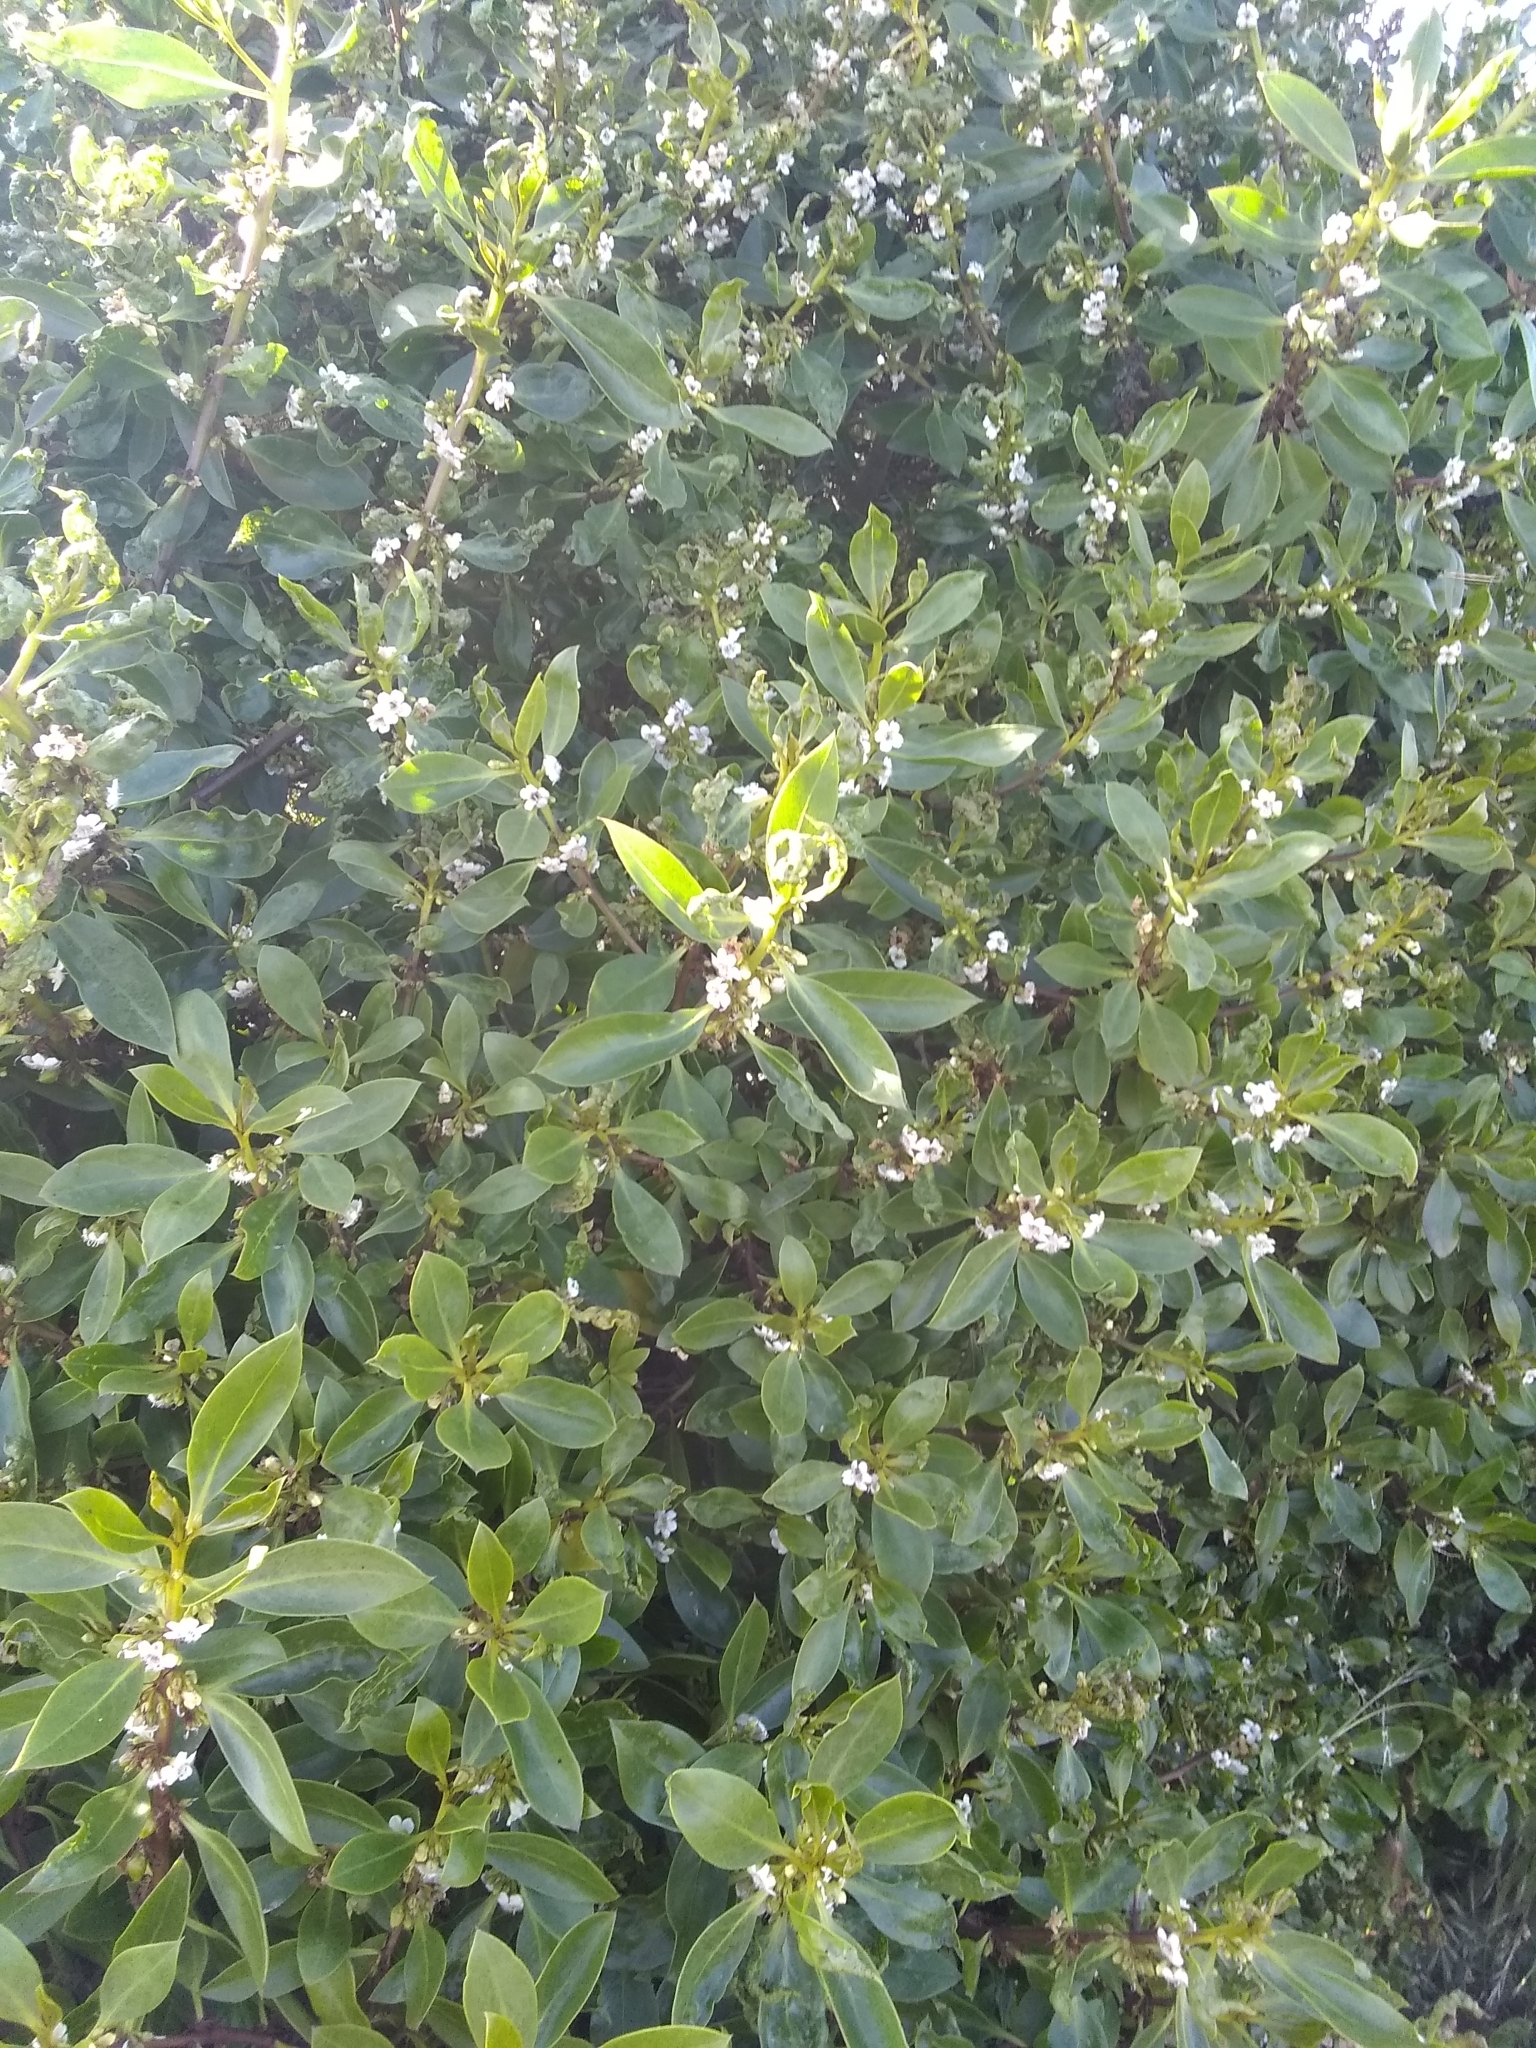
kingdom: Plantae
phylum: Tracheophyta
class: Magnoliopsida
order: Lamiales
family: Scrophulariaceae
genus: Myoporum
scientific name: Myoporum laetum
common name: Ngaio tree
